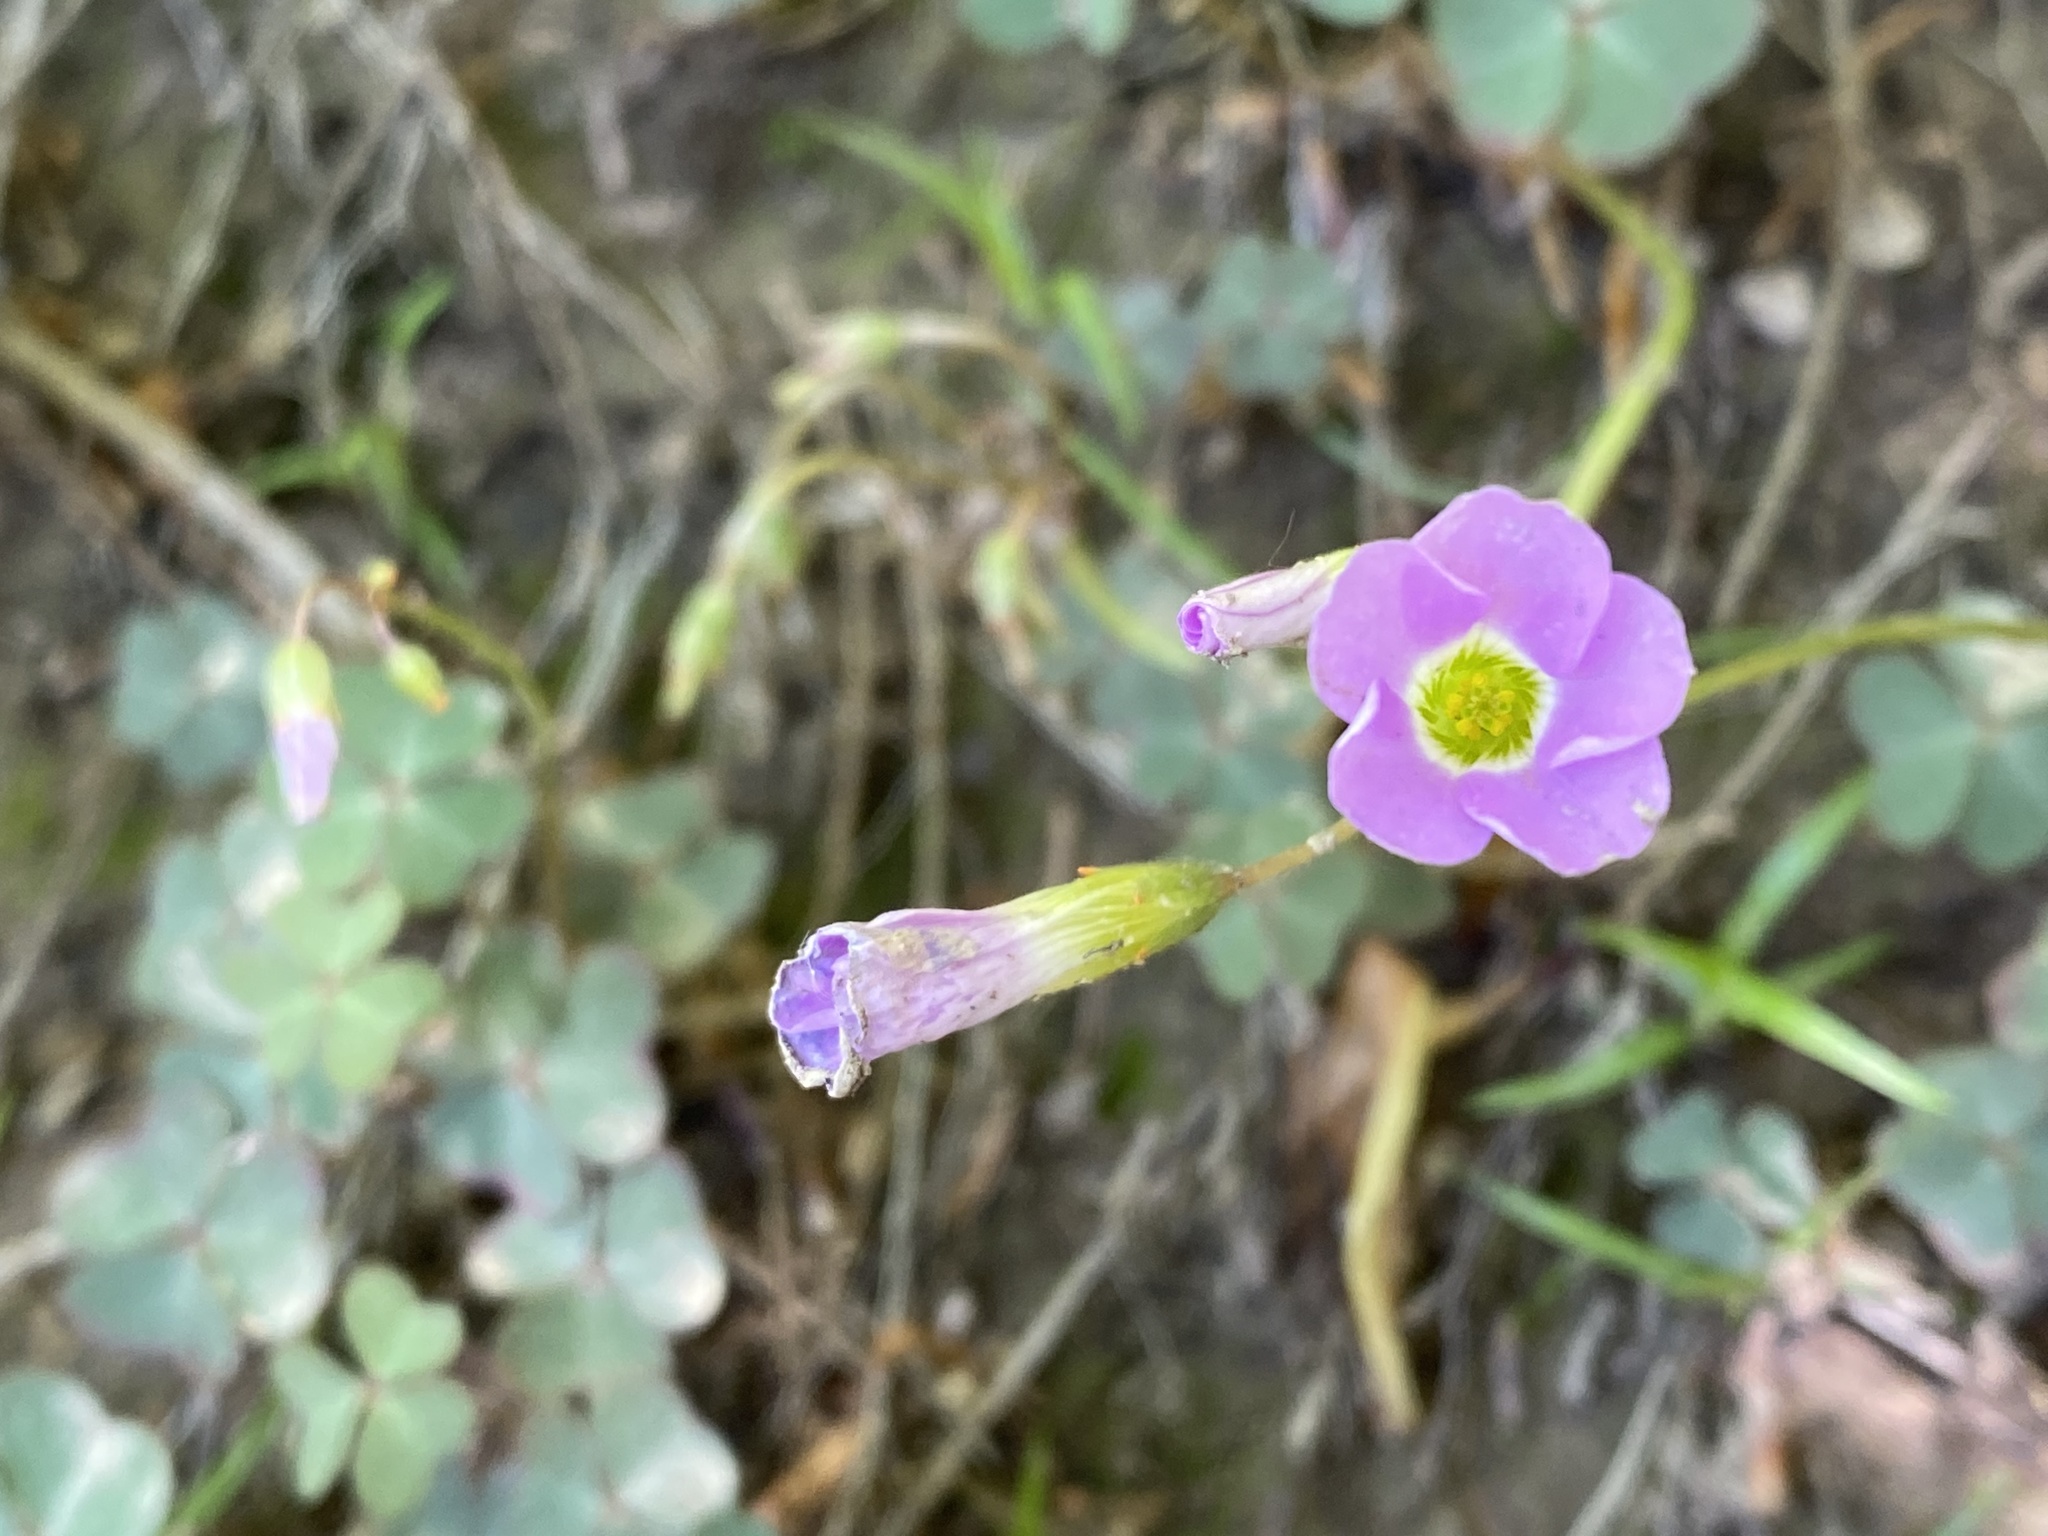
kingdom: Plantae
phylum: Tracheophyta
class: Magnoliopsida
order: Oxalidales
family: Oxalidaceae
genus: Oxalis
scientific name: Oxalis violacea
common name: Violet wood-sorrel
